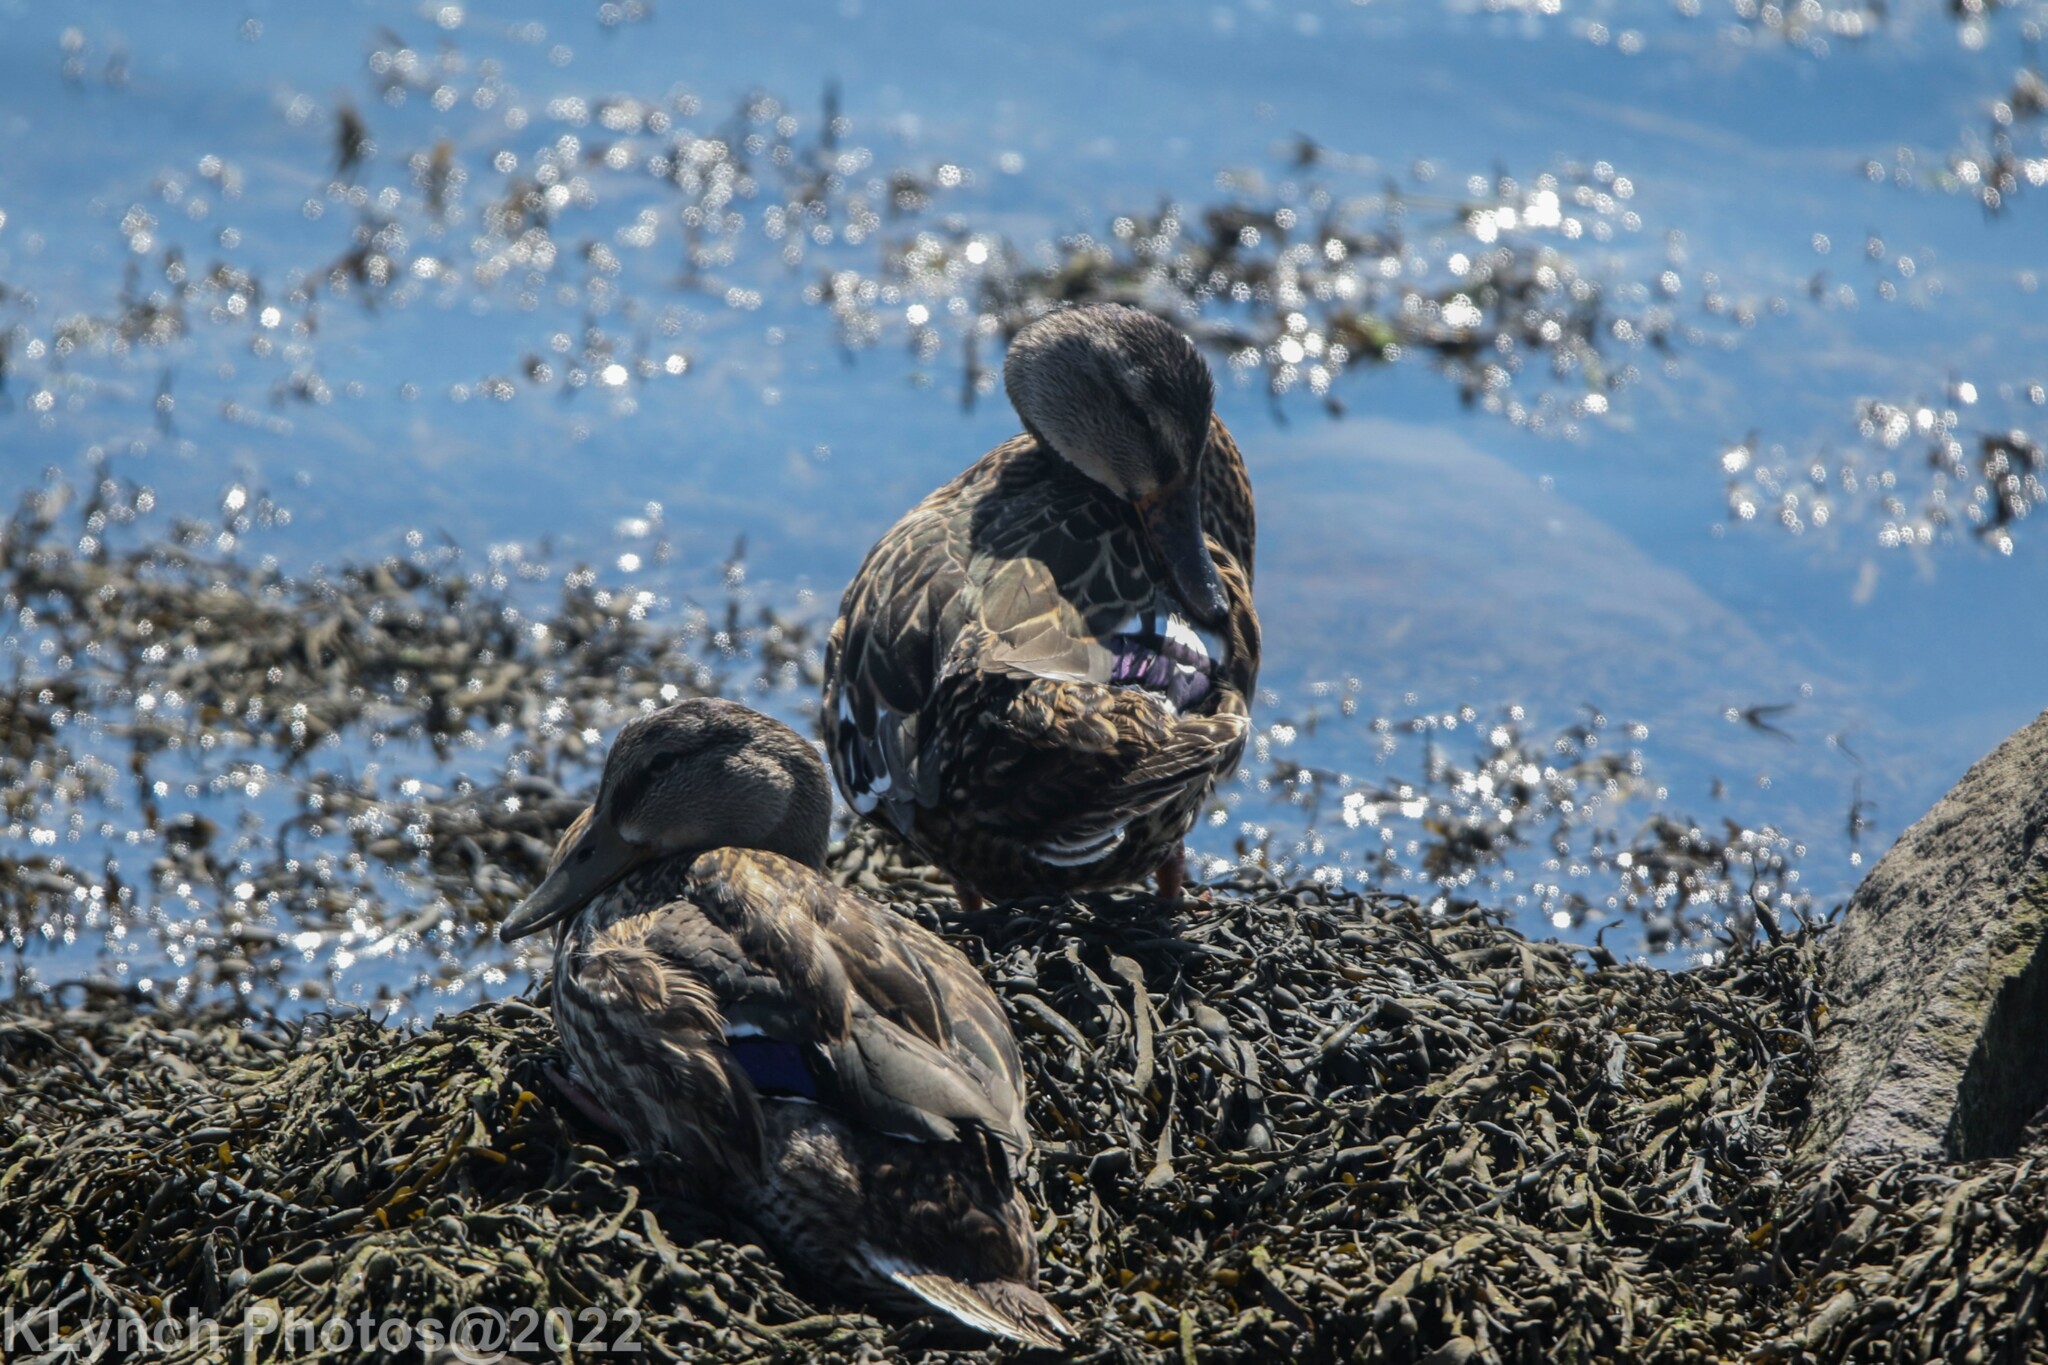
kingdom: Animalia
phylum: Chordata
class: Aves
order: Anseriformes
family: Anatidae
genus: Anas
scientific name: Anas platyrhynchos
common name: Mallard
